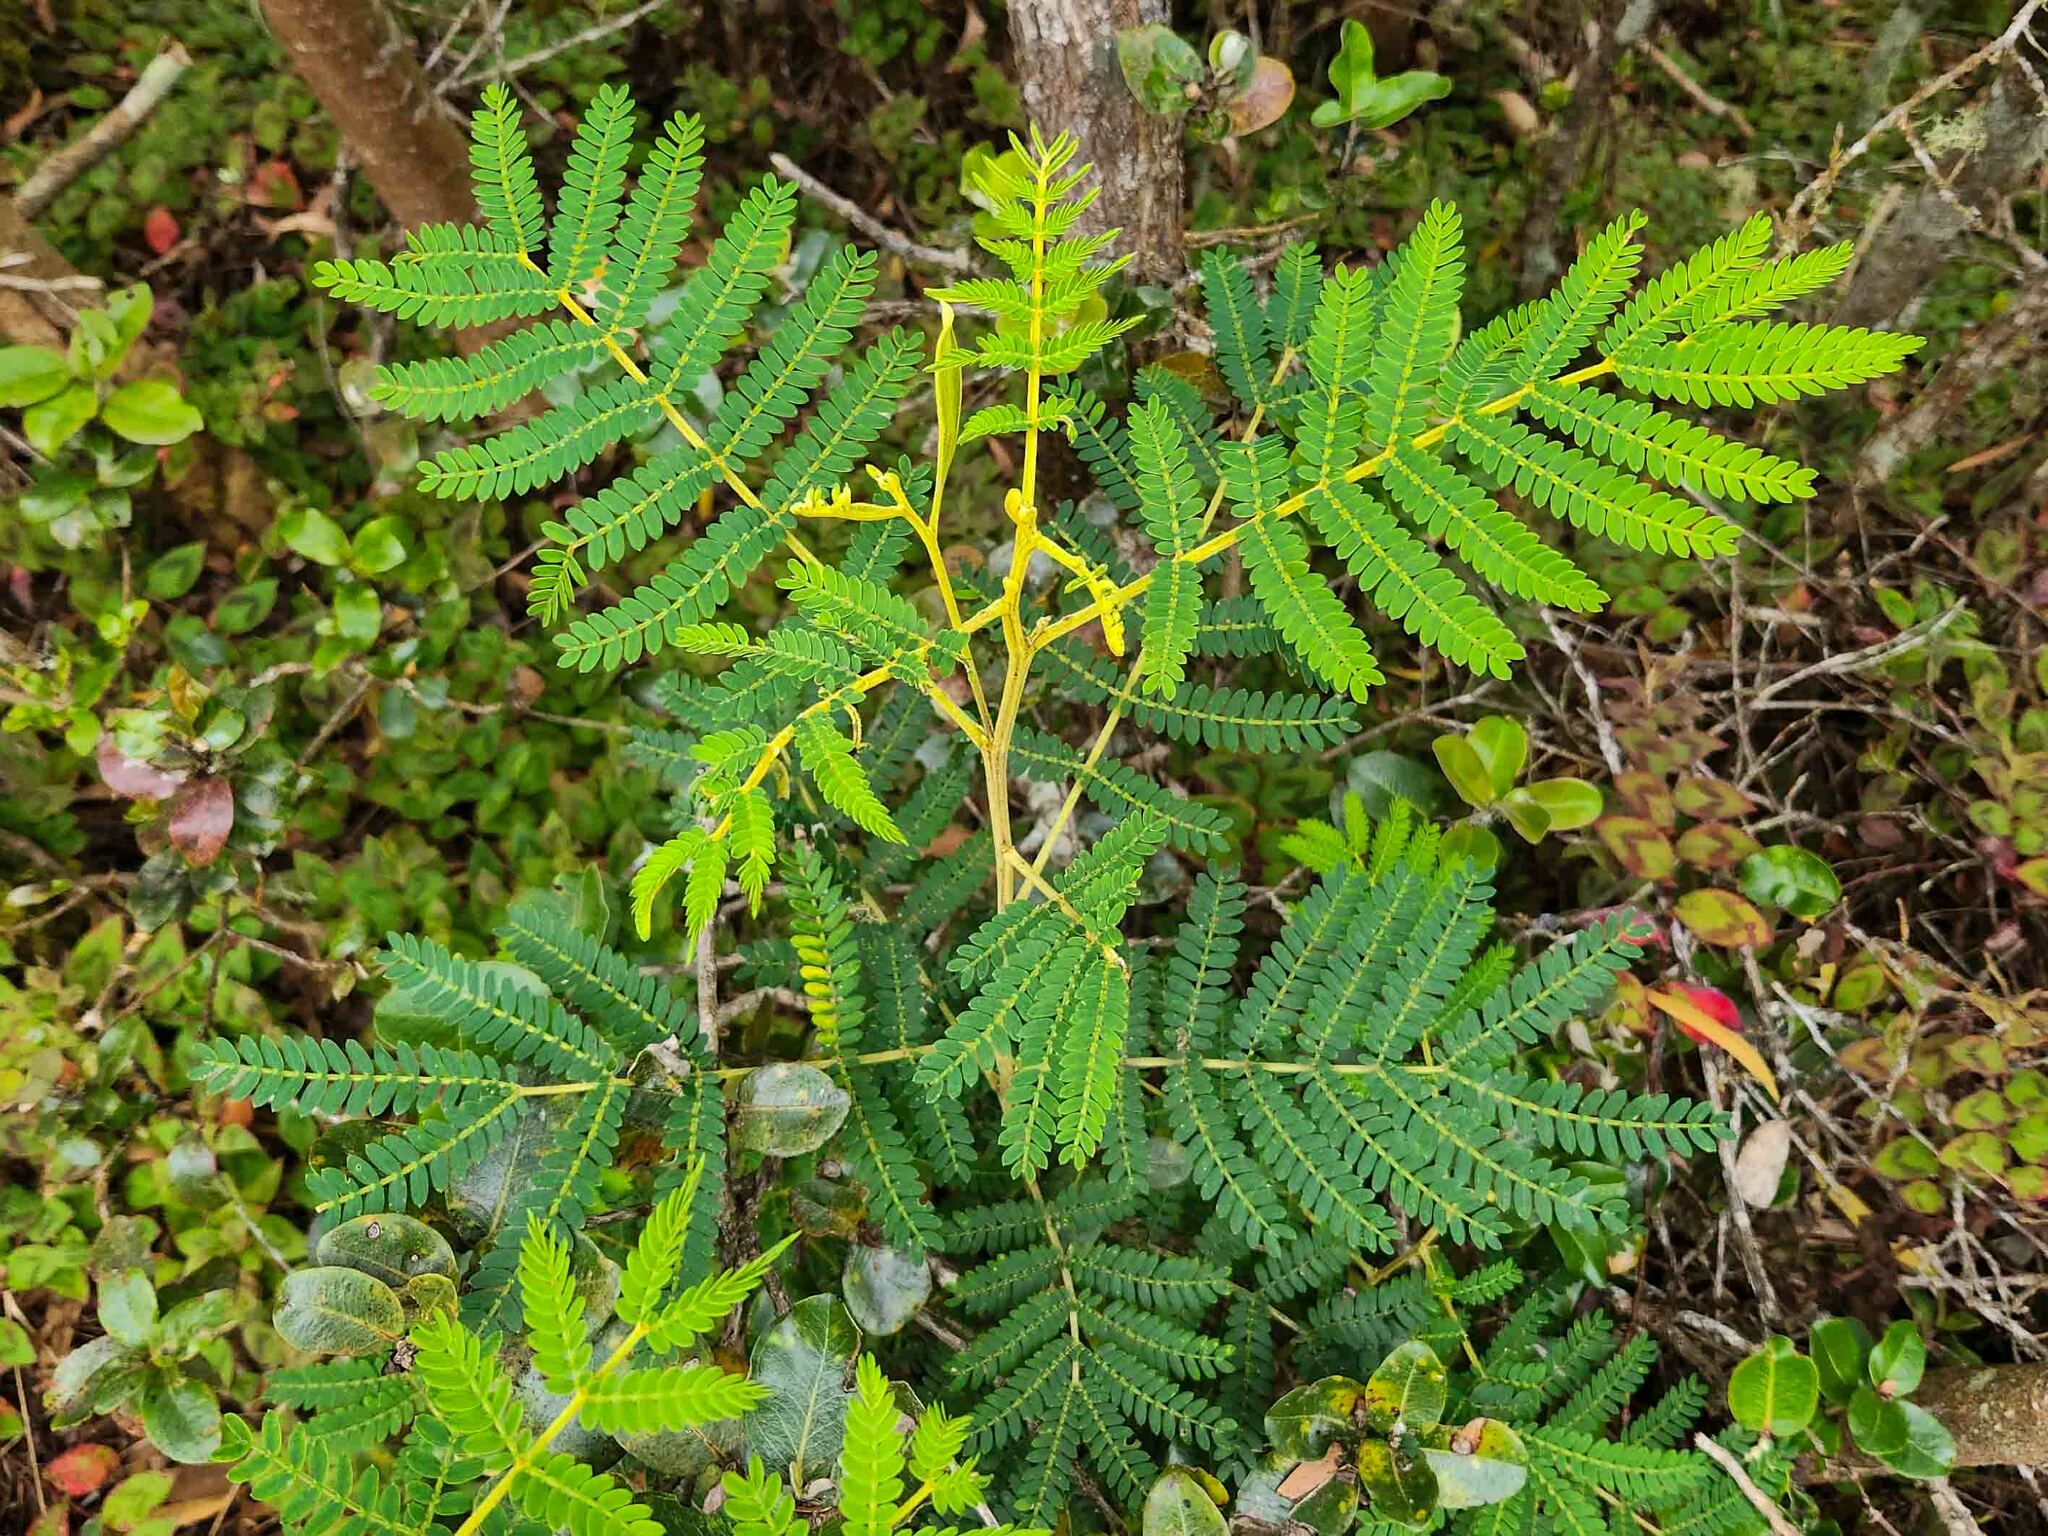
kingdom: Plantae
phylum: Tracheophyta
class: Magnoliopsida
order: Fabales
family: Fabaceae
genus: Acacia
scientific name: Acacia koa
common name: Gray koa
